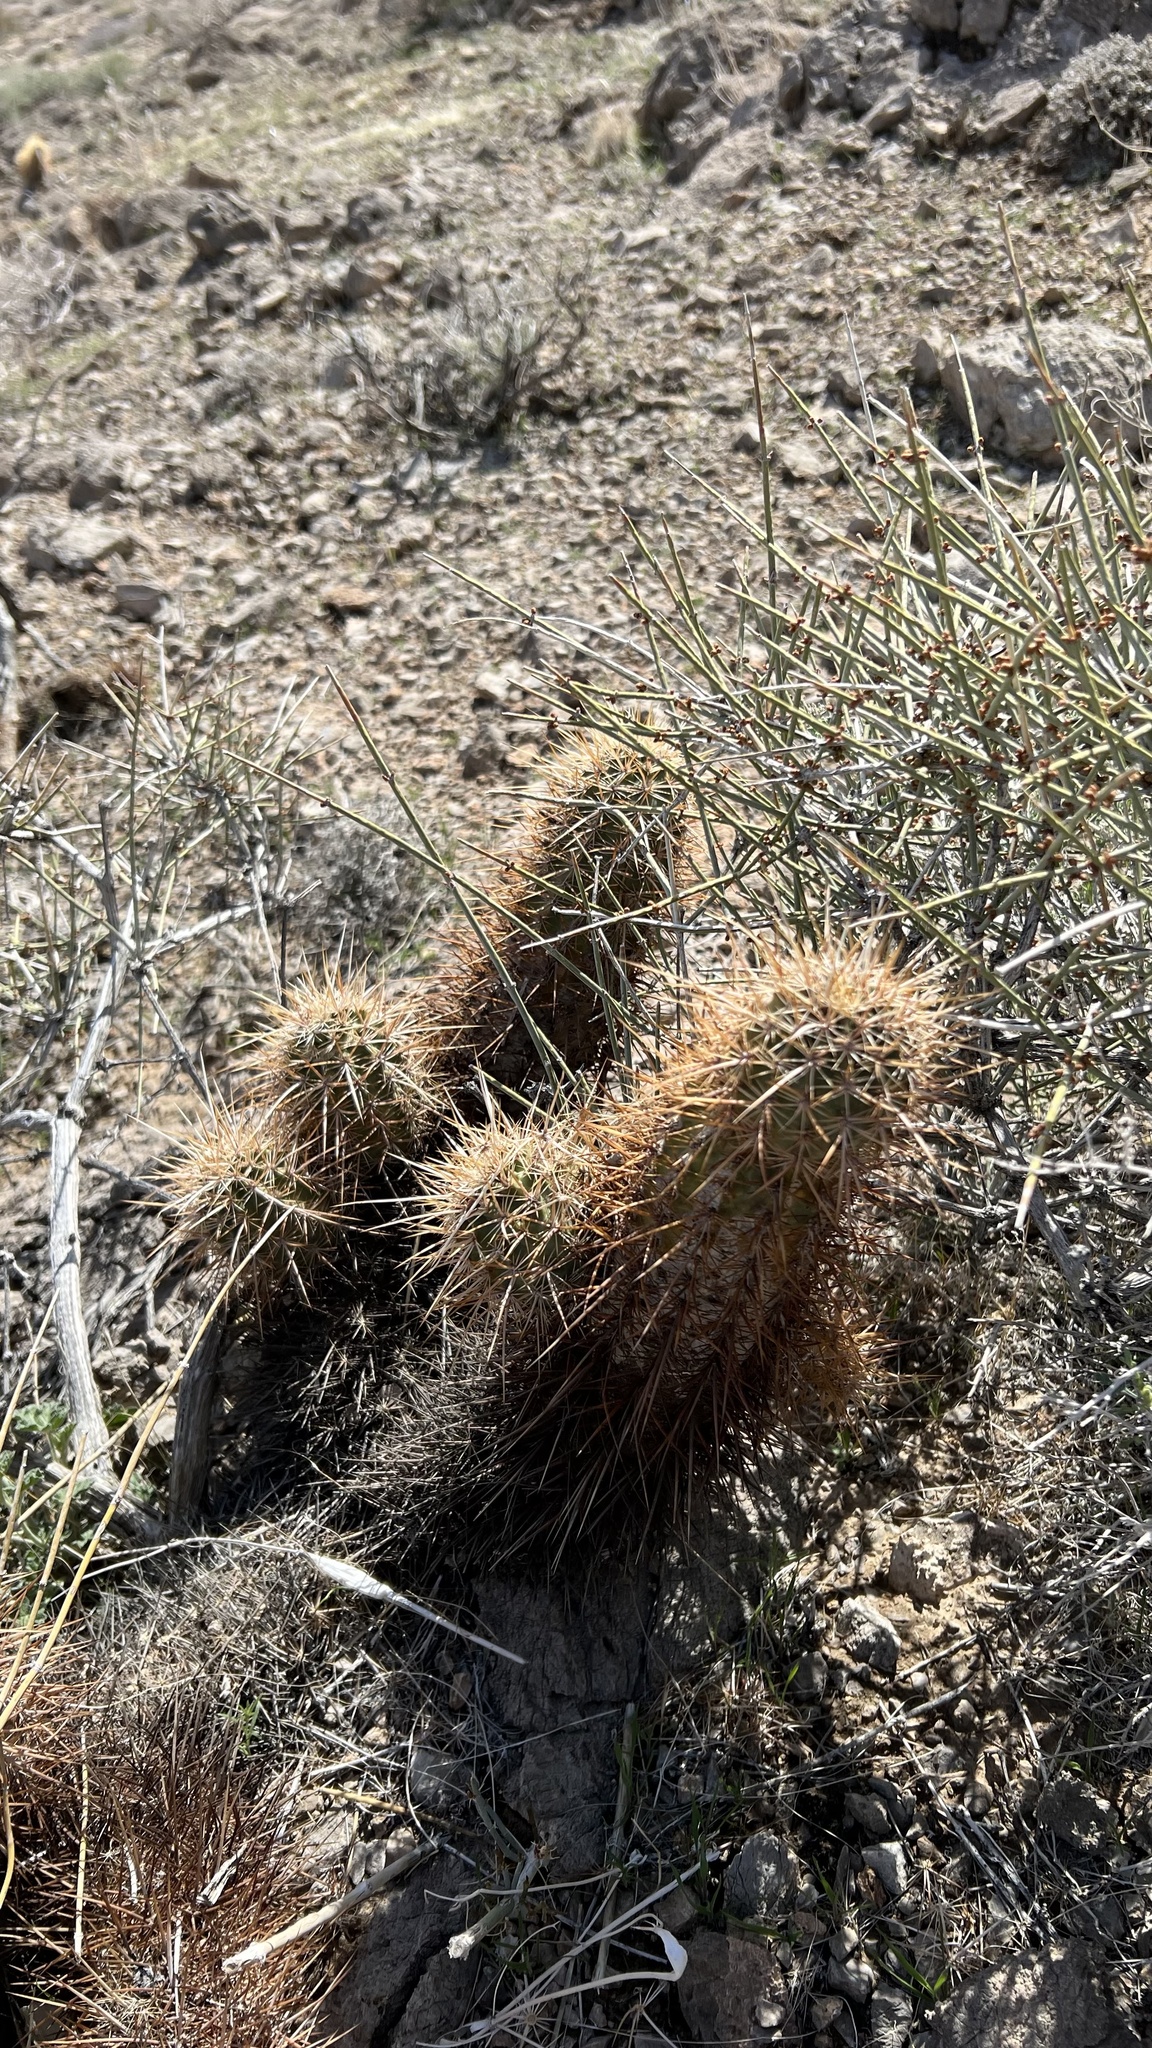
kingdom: Plantae
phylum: Tracheophyta
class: Magnoliopsida
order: Caryophyllales
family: Cactaceae
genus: Echinocereus
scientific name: Echinocereus engelmannii
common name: Engelmann's hedgehog cactus
